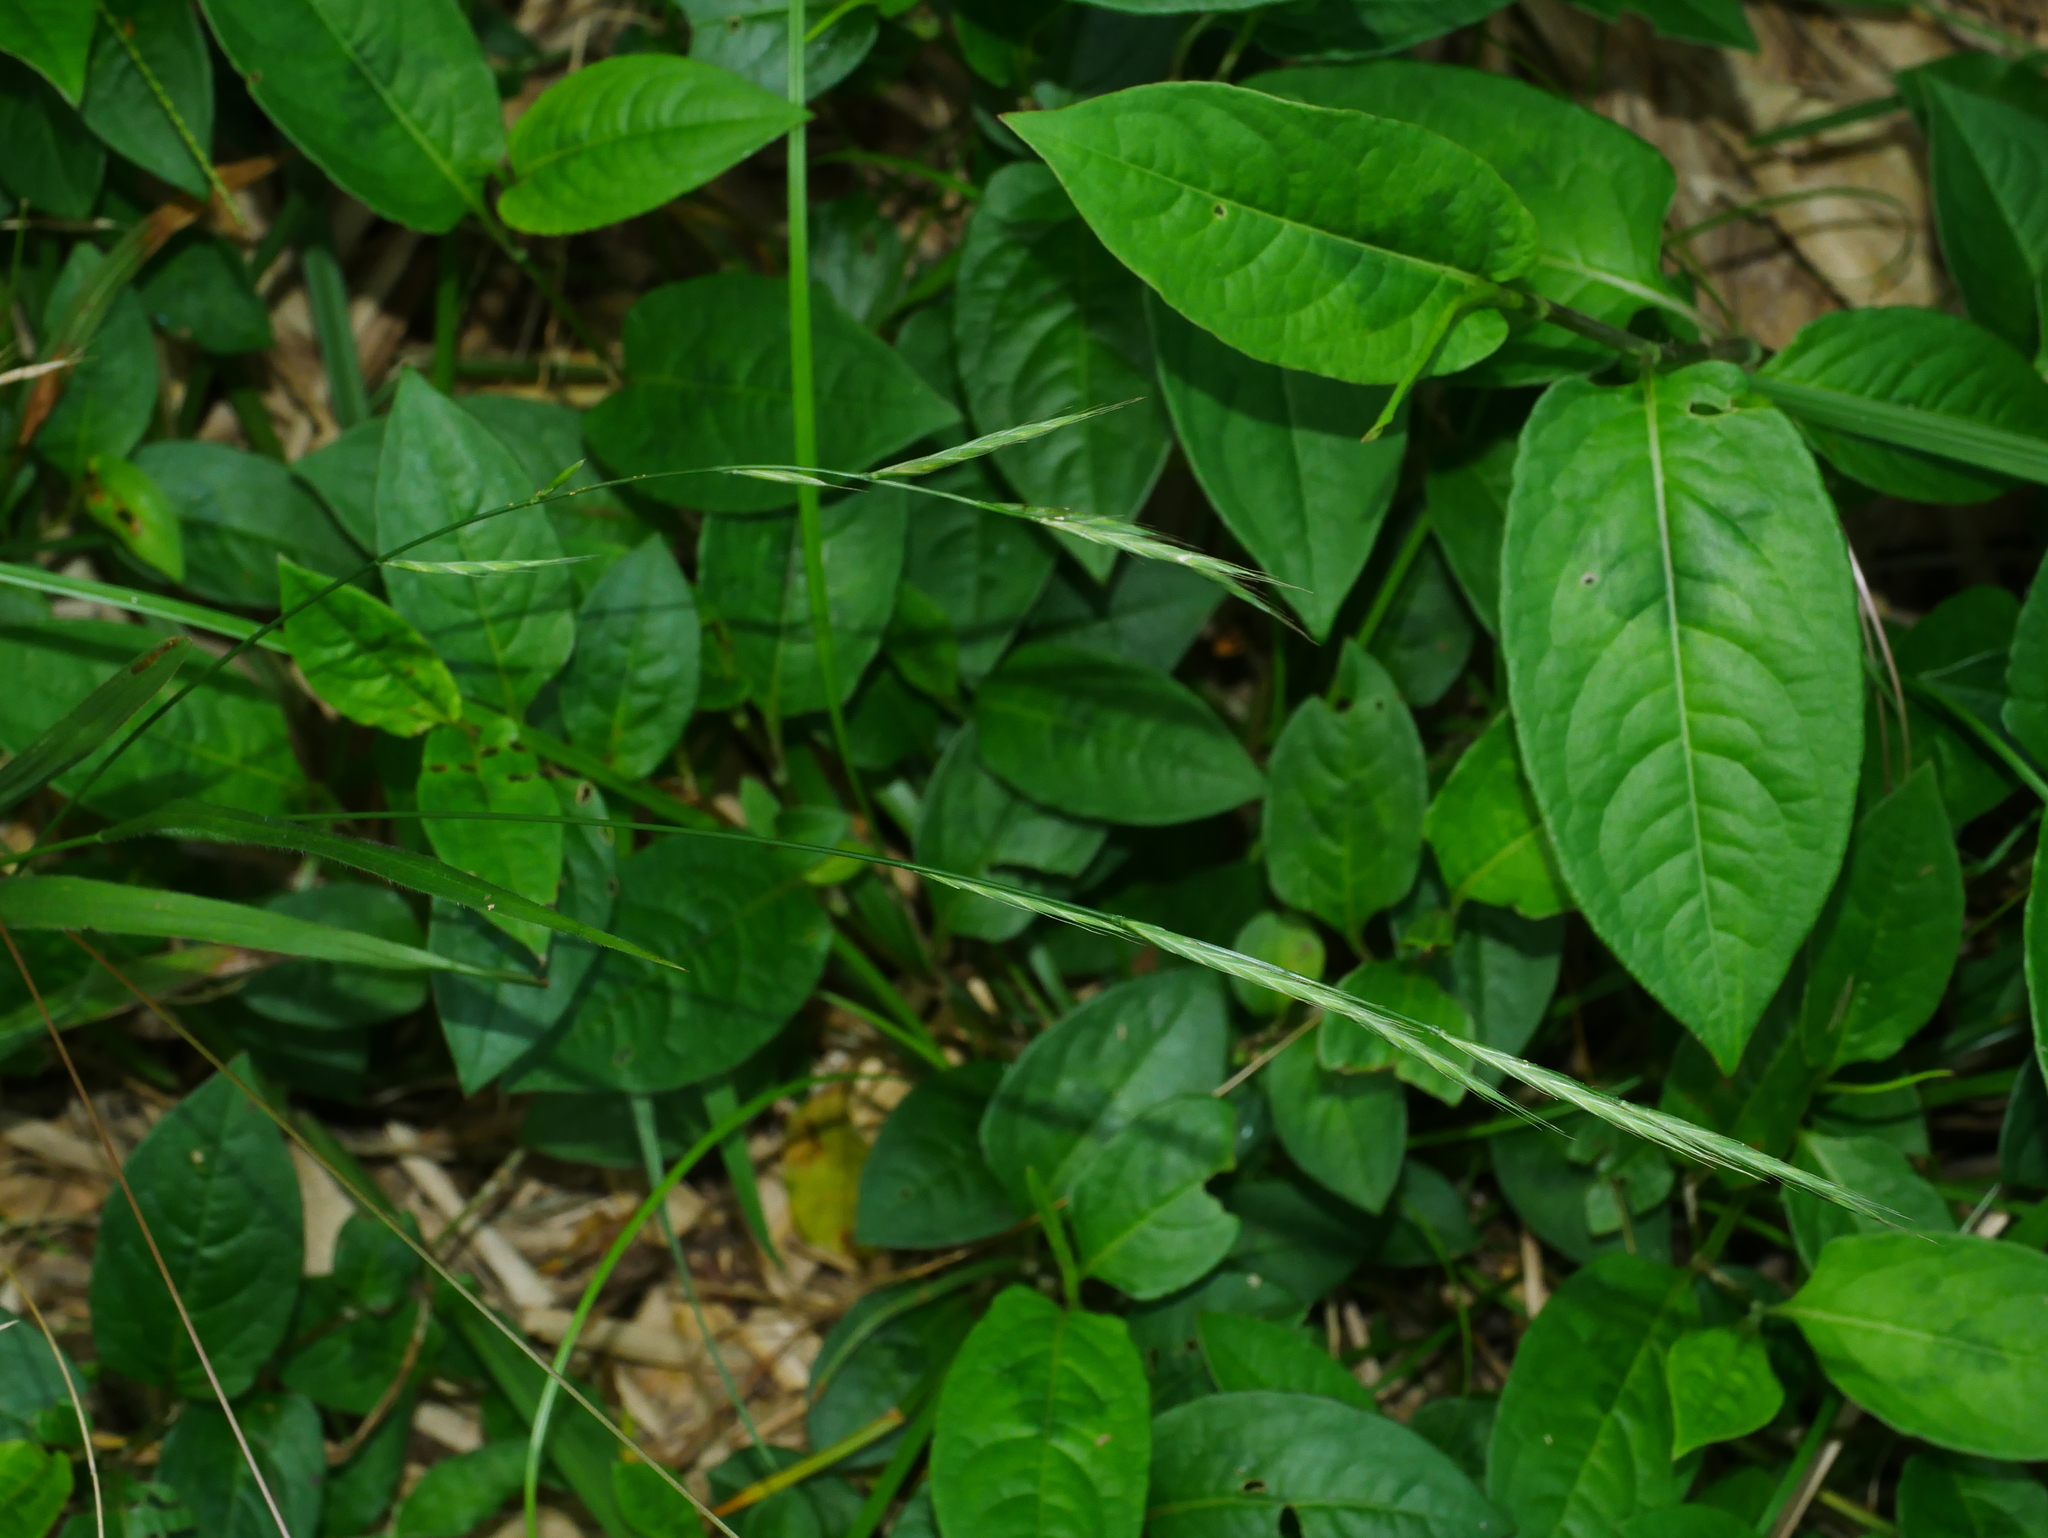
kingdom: Plantae
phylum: Tracheophyta
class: Liliopsida
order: Poales
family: Poaceae
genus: Brachypodium
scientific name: Brachypodium sylvaticum
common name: False-brome
